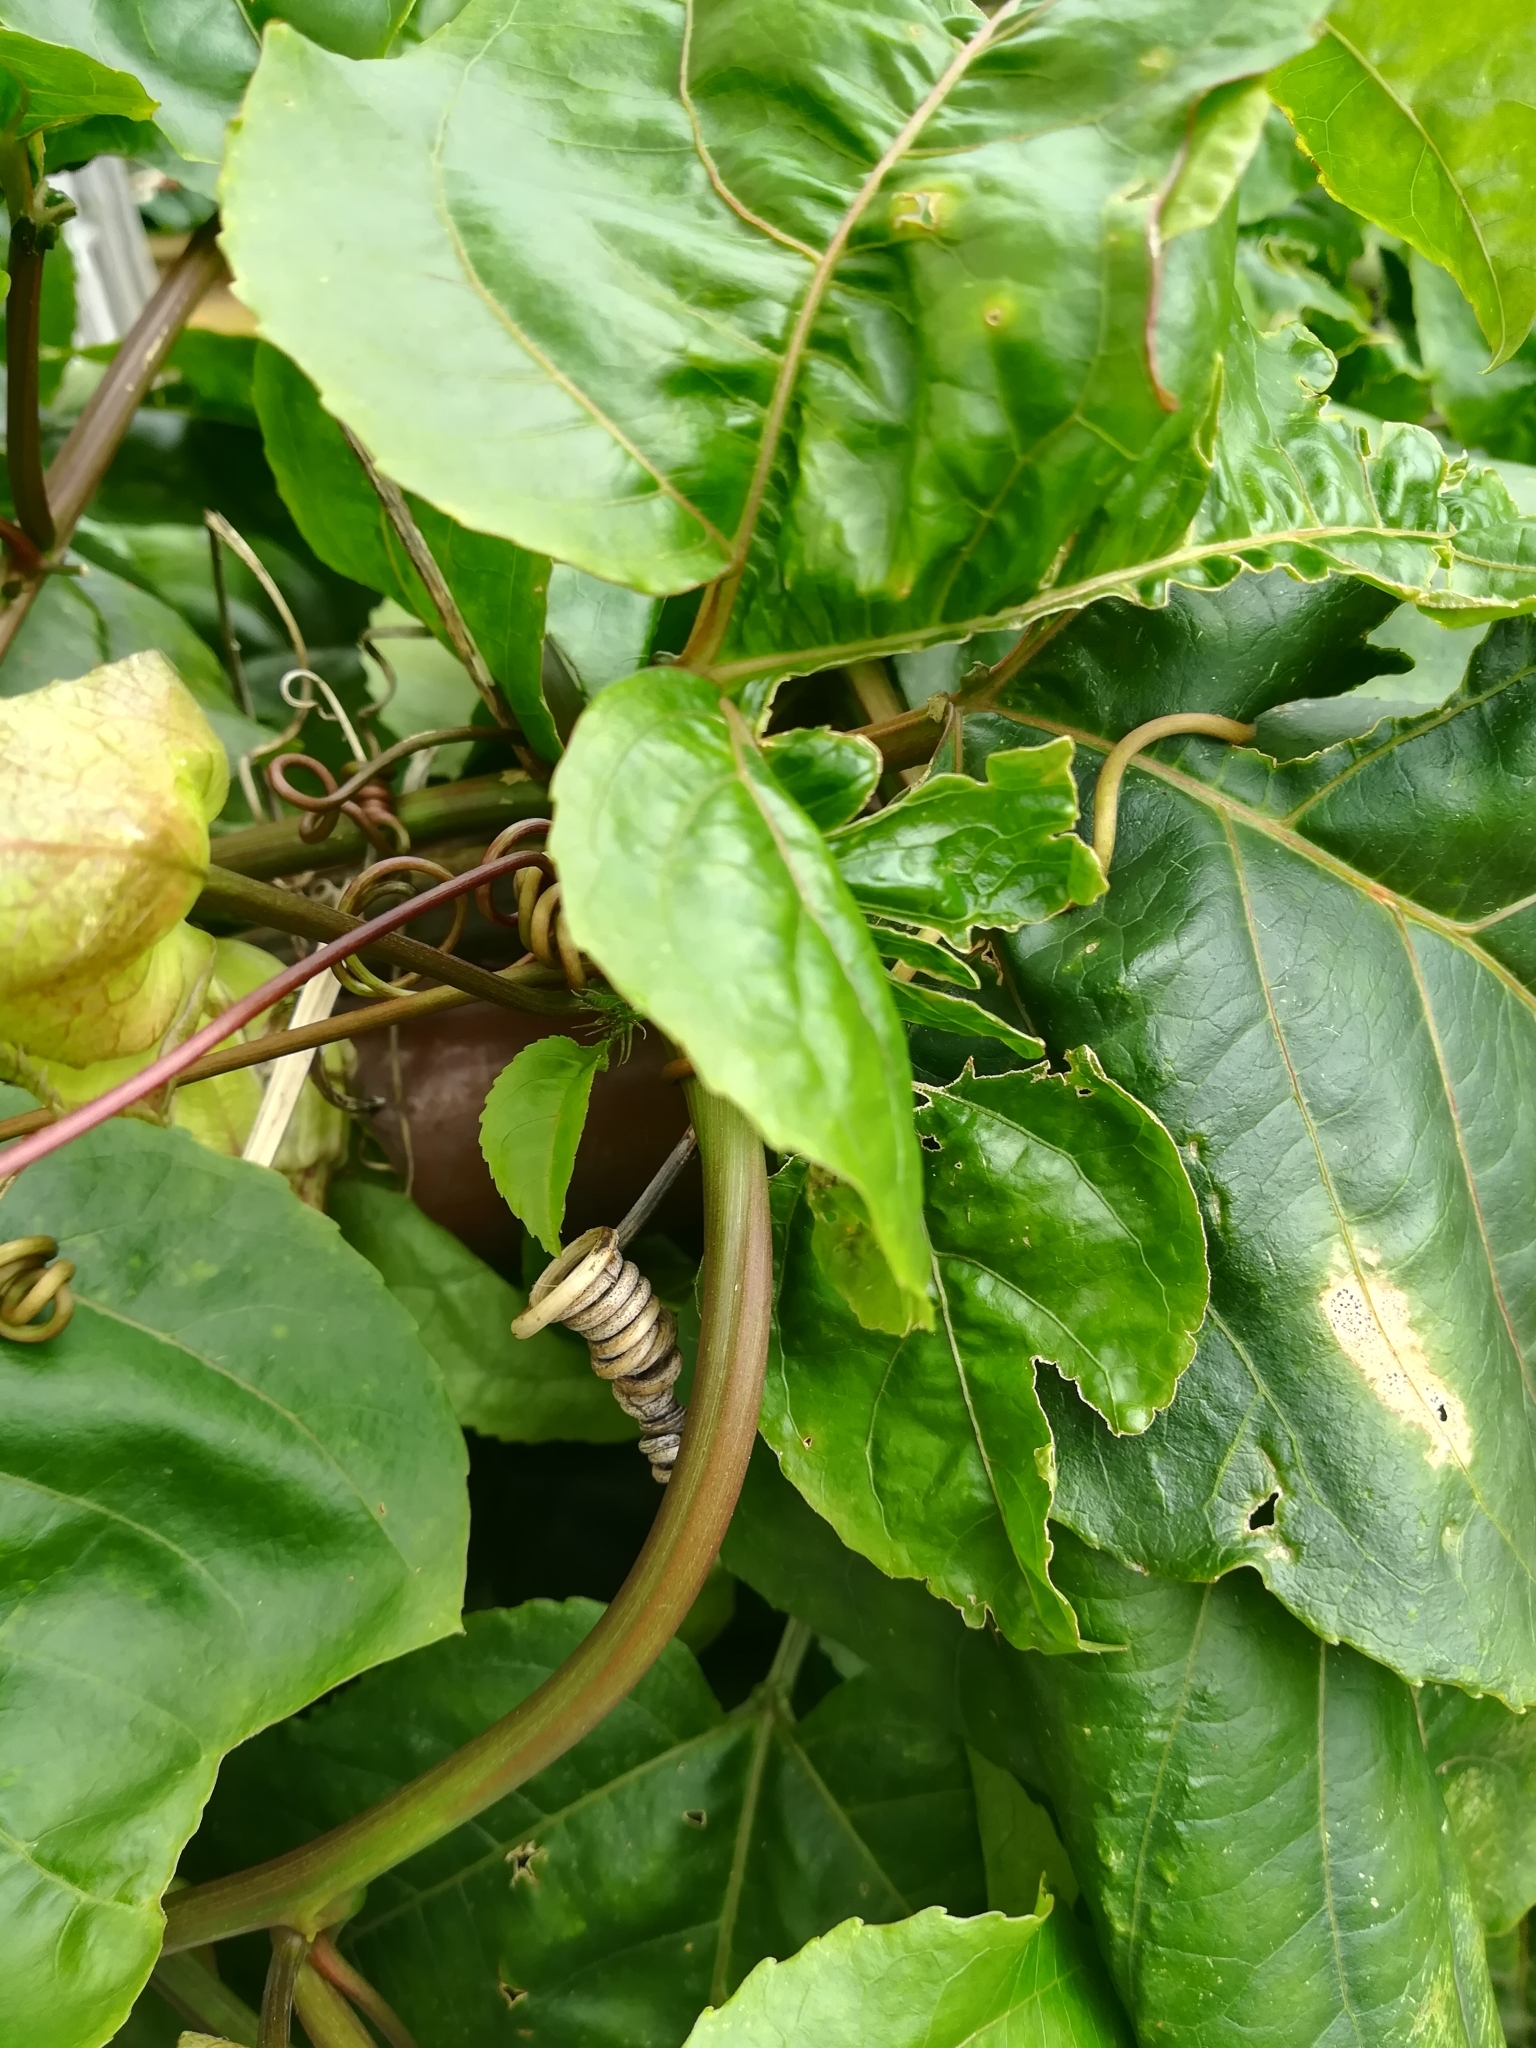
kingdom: Plantae
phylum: Tracheophyta
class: Magnoliopsida
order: Malpighiales
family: Passifloraceae
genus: Passiflora
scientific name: Passiflora edulis
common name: Purple granadilla
